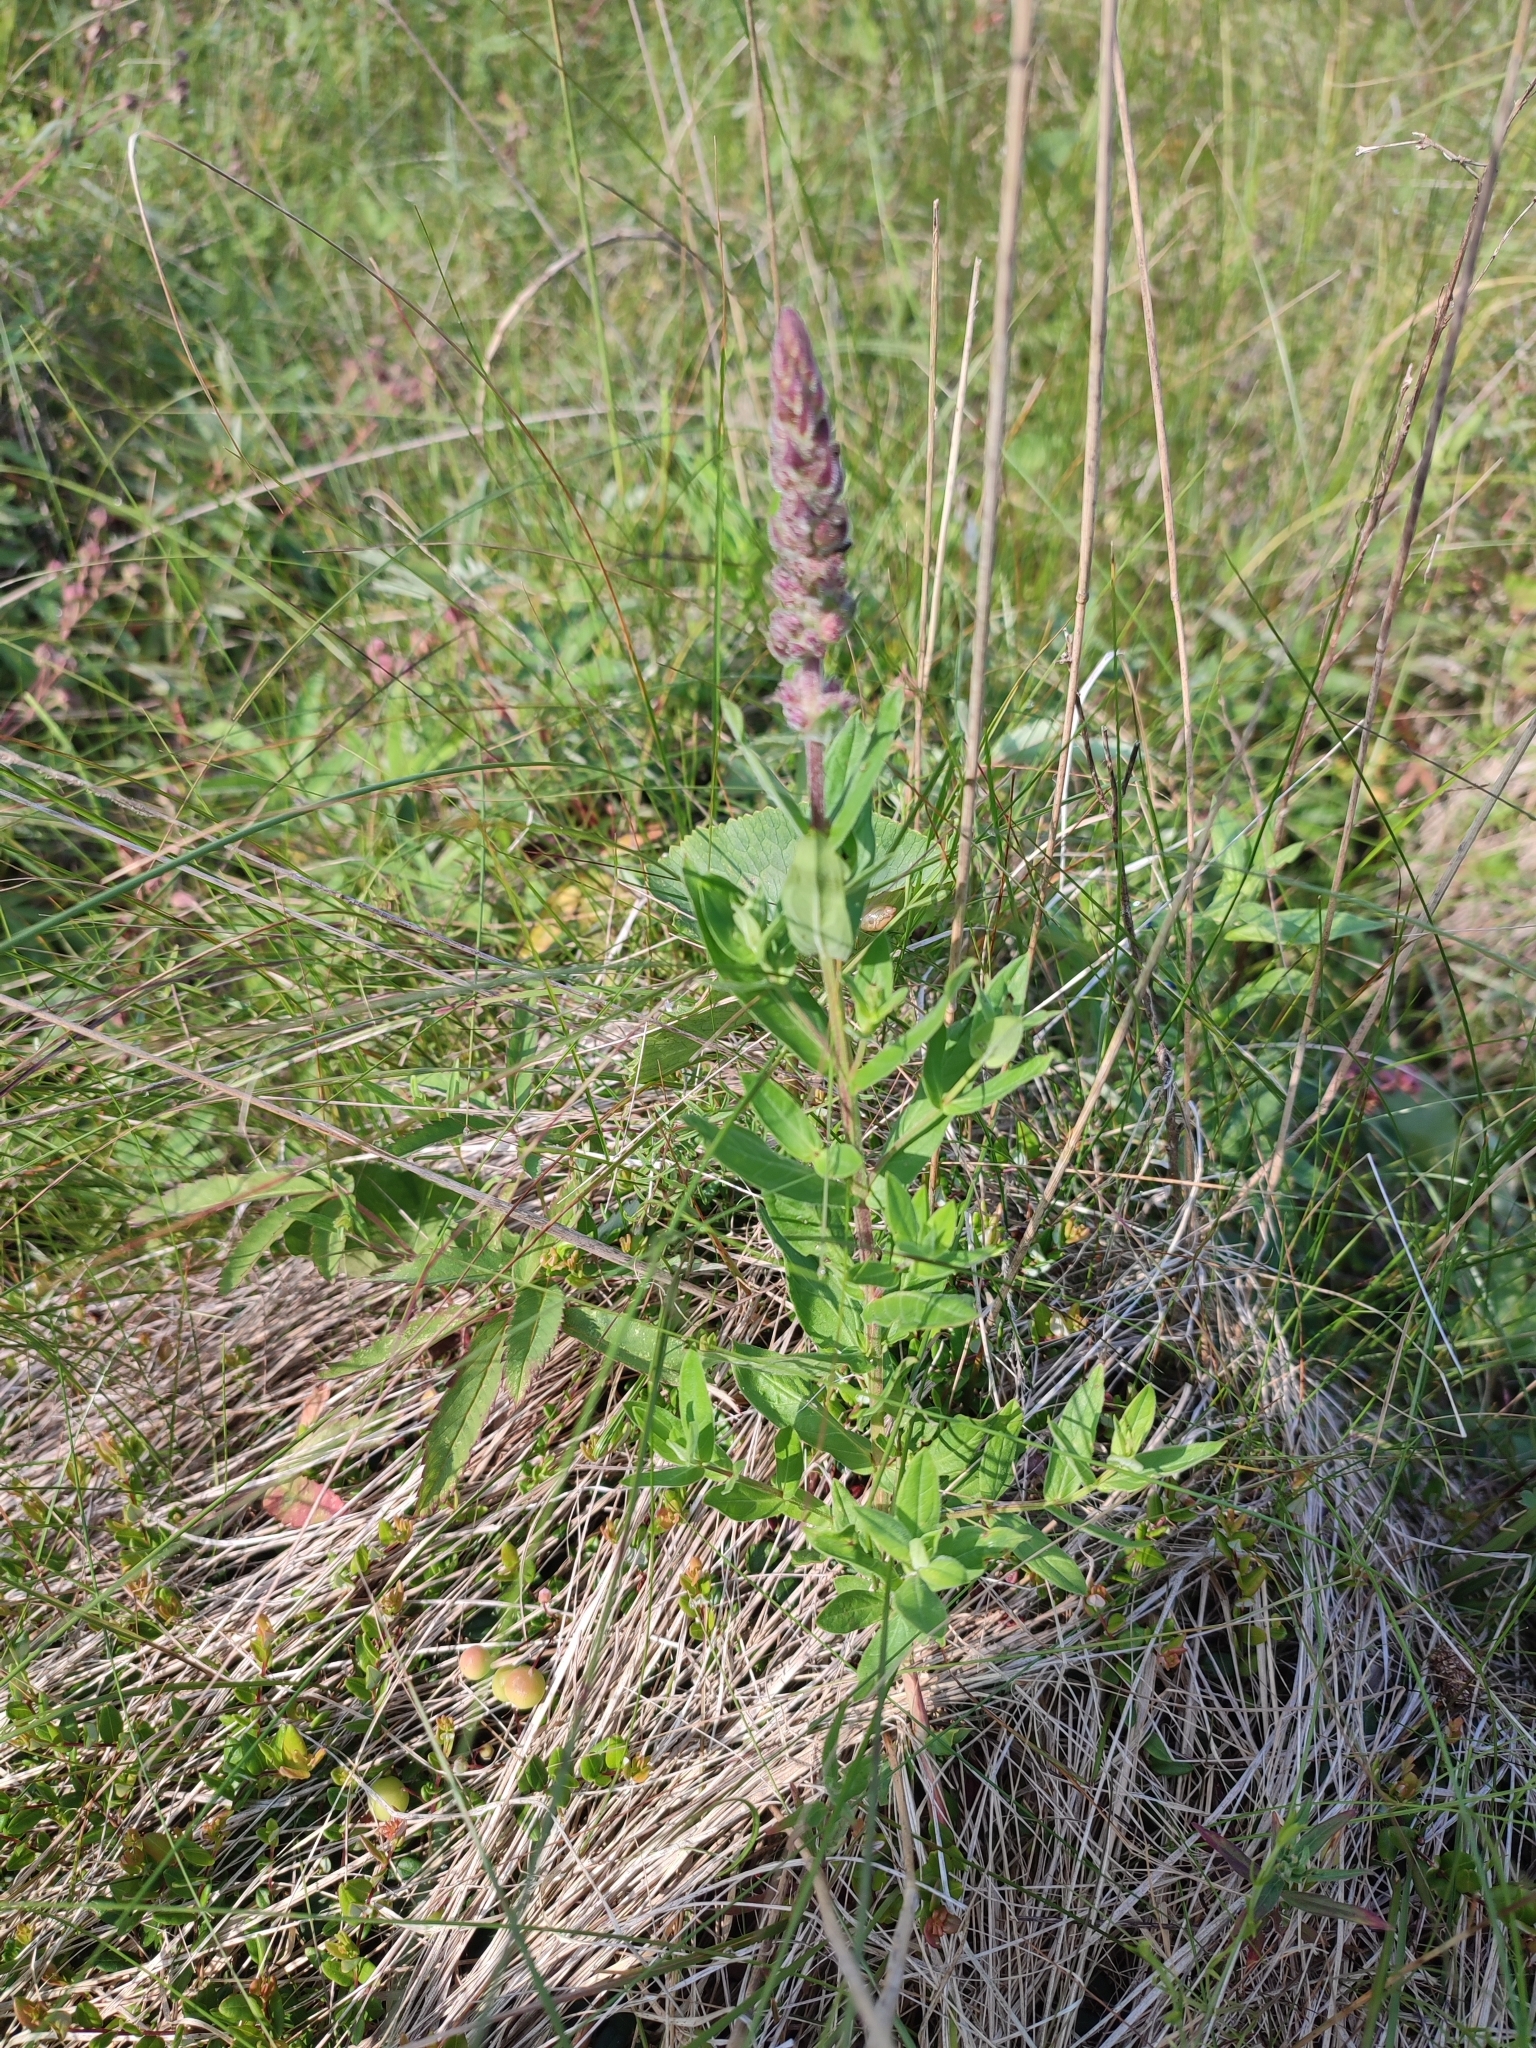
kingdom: Plantae
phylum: Tracheophyta
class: Magnoliopsida
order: Myrtales
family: Lythraceae
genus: Lythrum
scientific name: Lythrum salicaria
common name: Purple loosestrife
